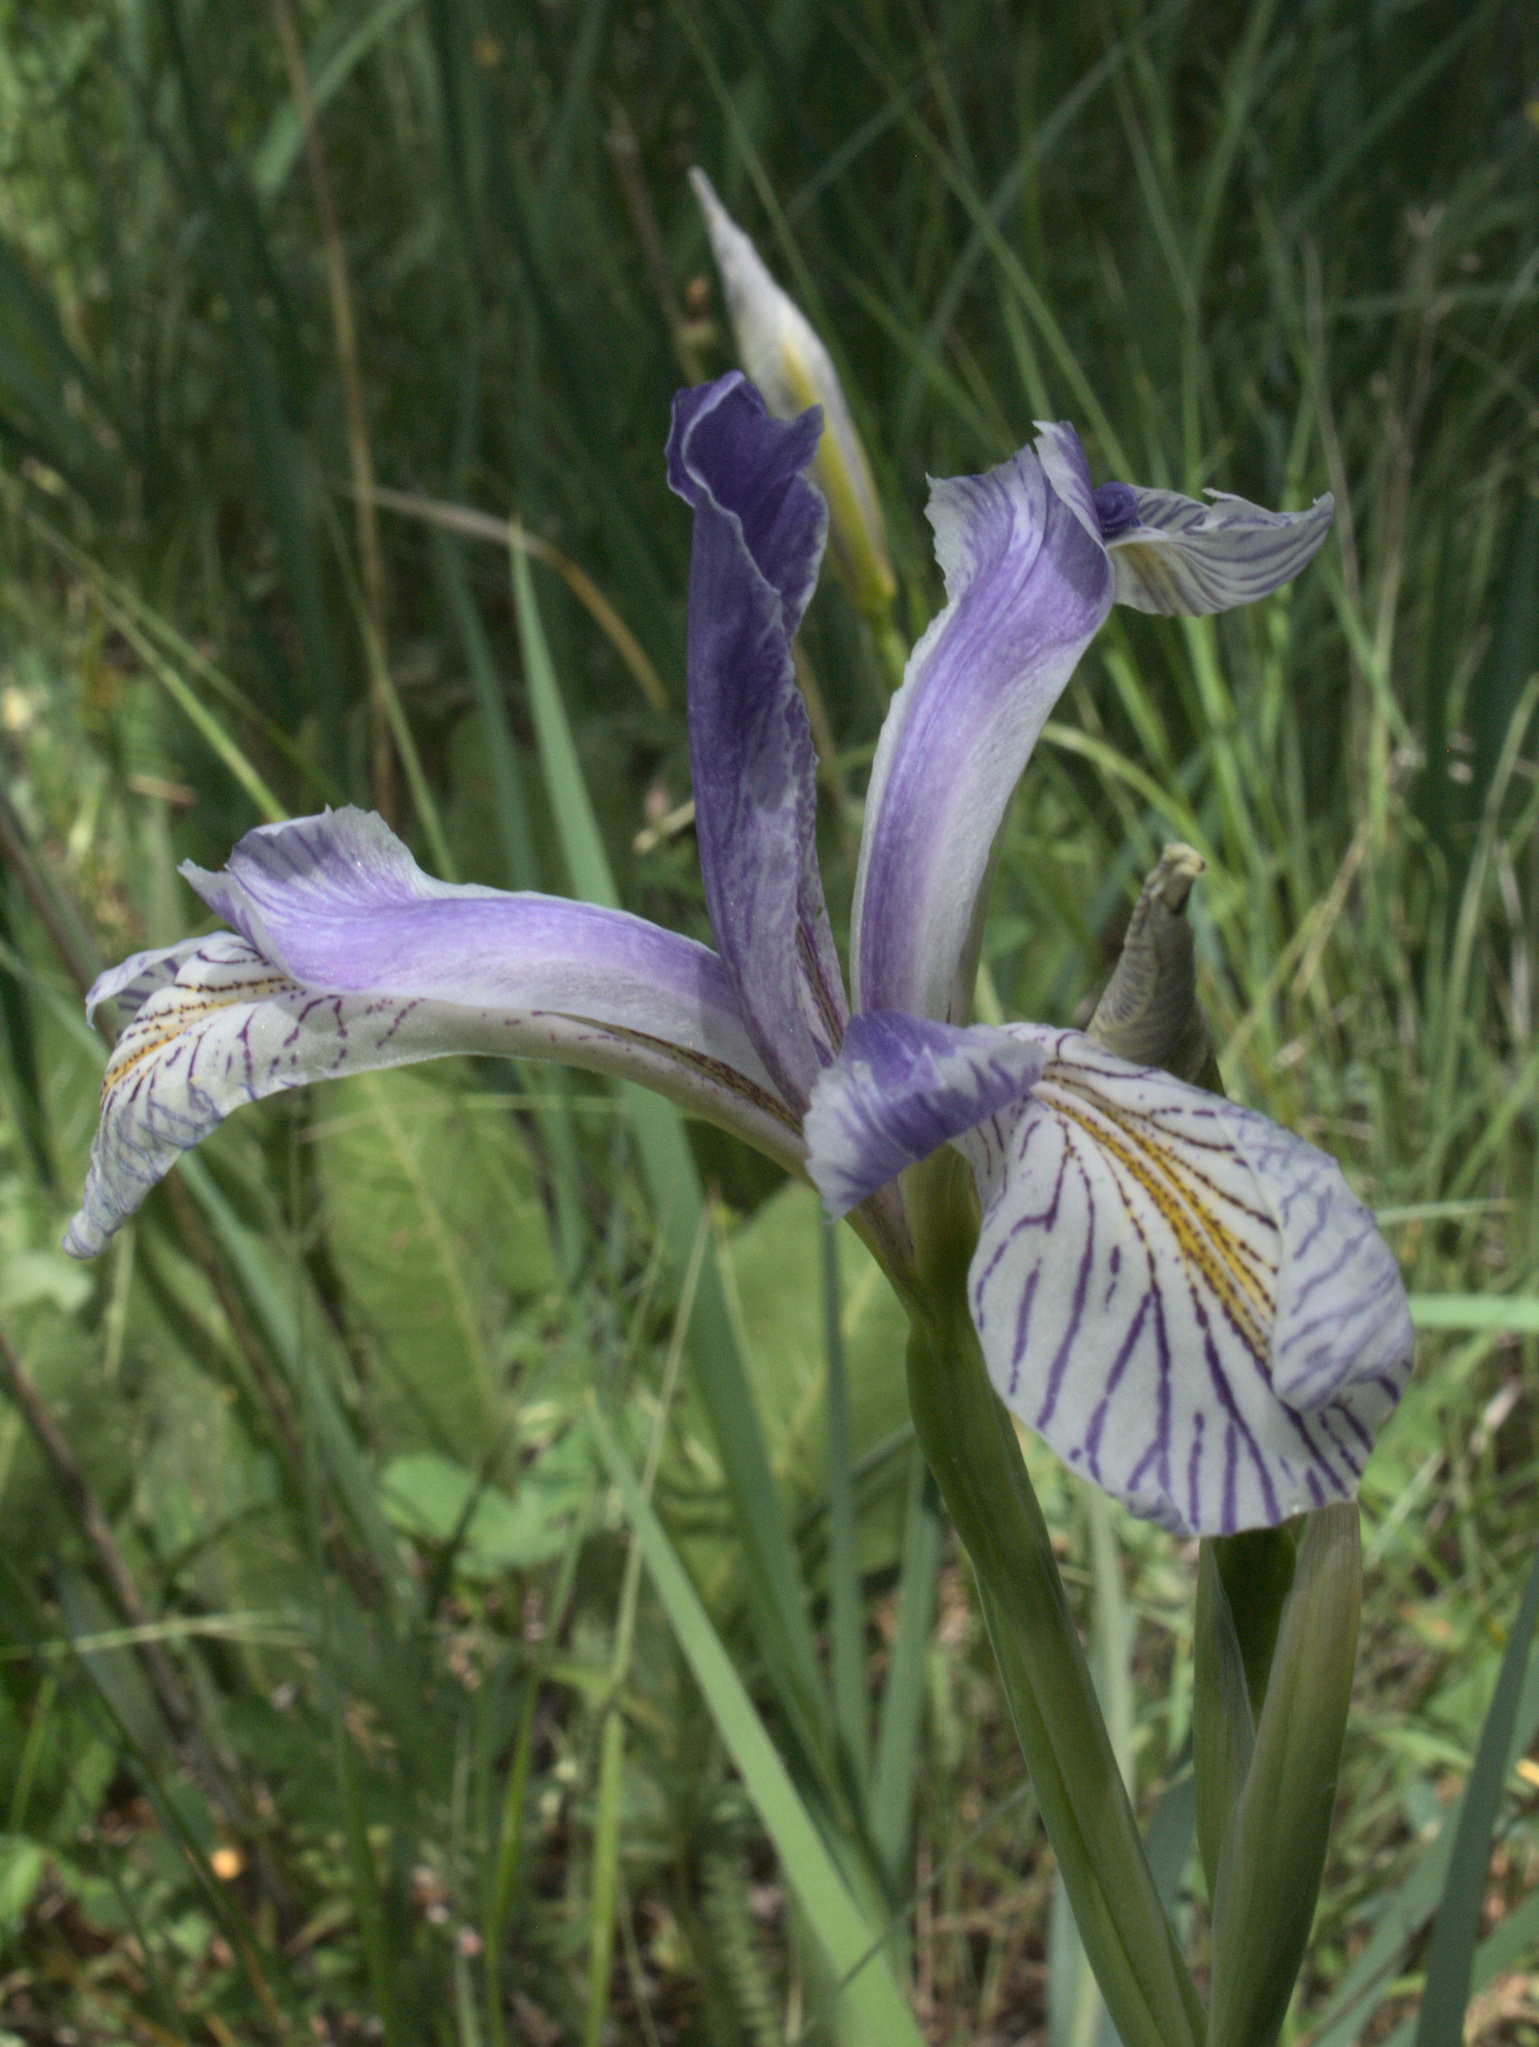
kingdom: Plantae
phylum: Tracheophyta
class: Liliopsida
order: Asparagales
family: Iridaceae
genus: Iris
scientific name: Iris missouriensis
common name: Rocky mountain iris
